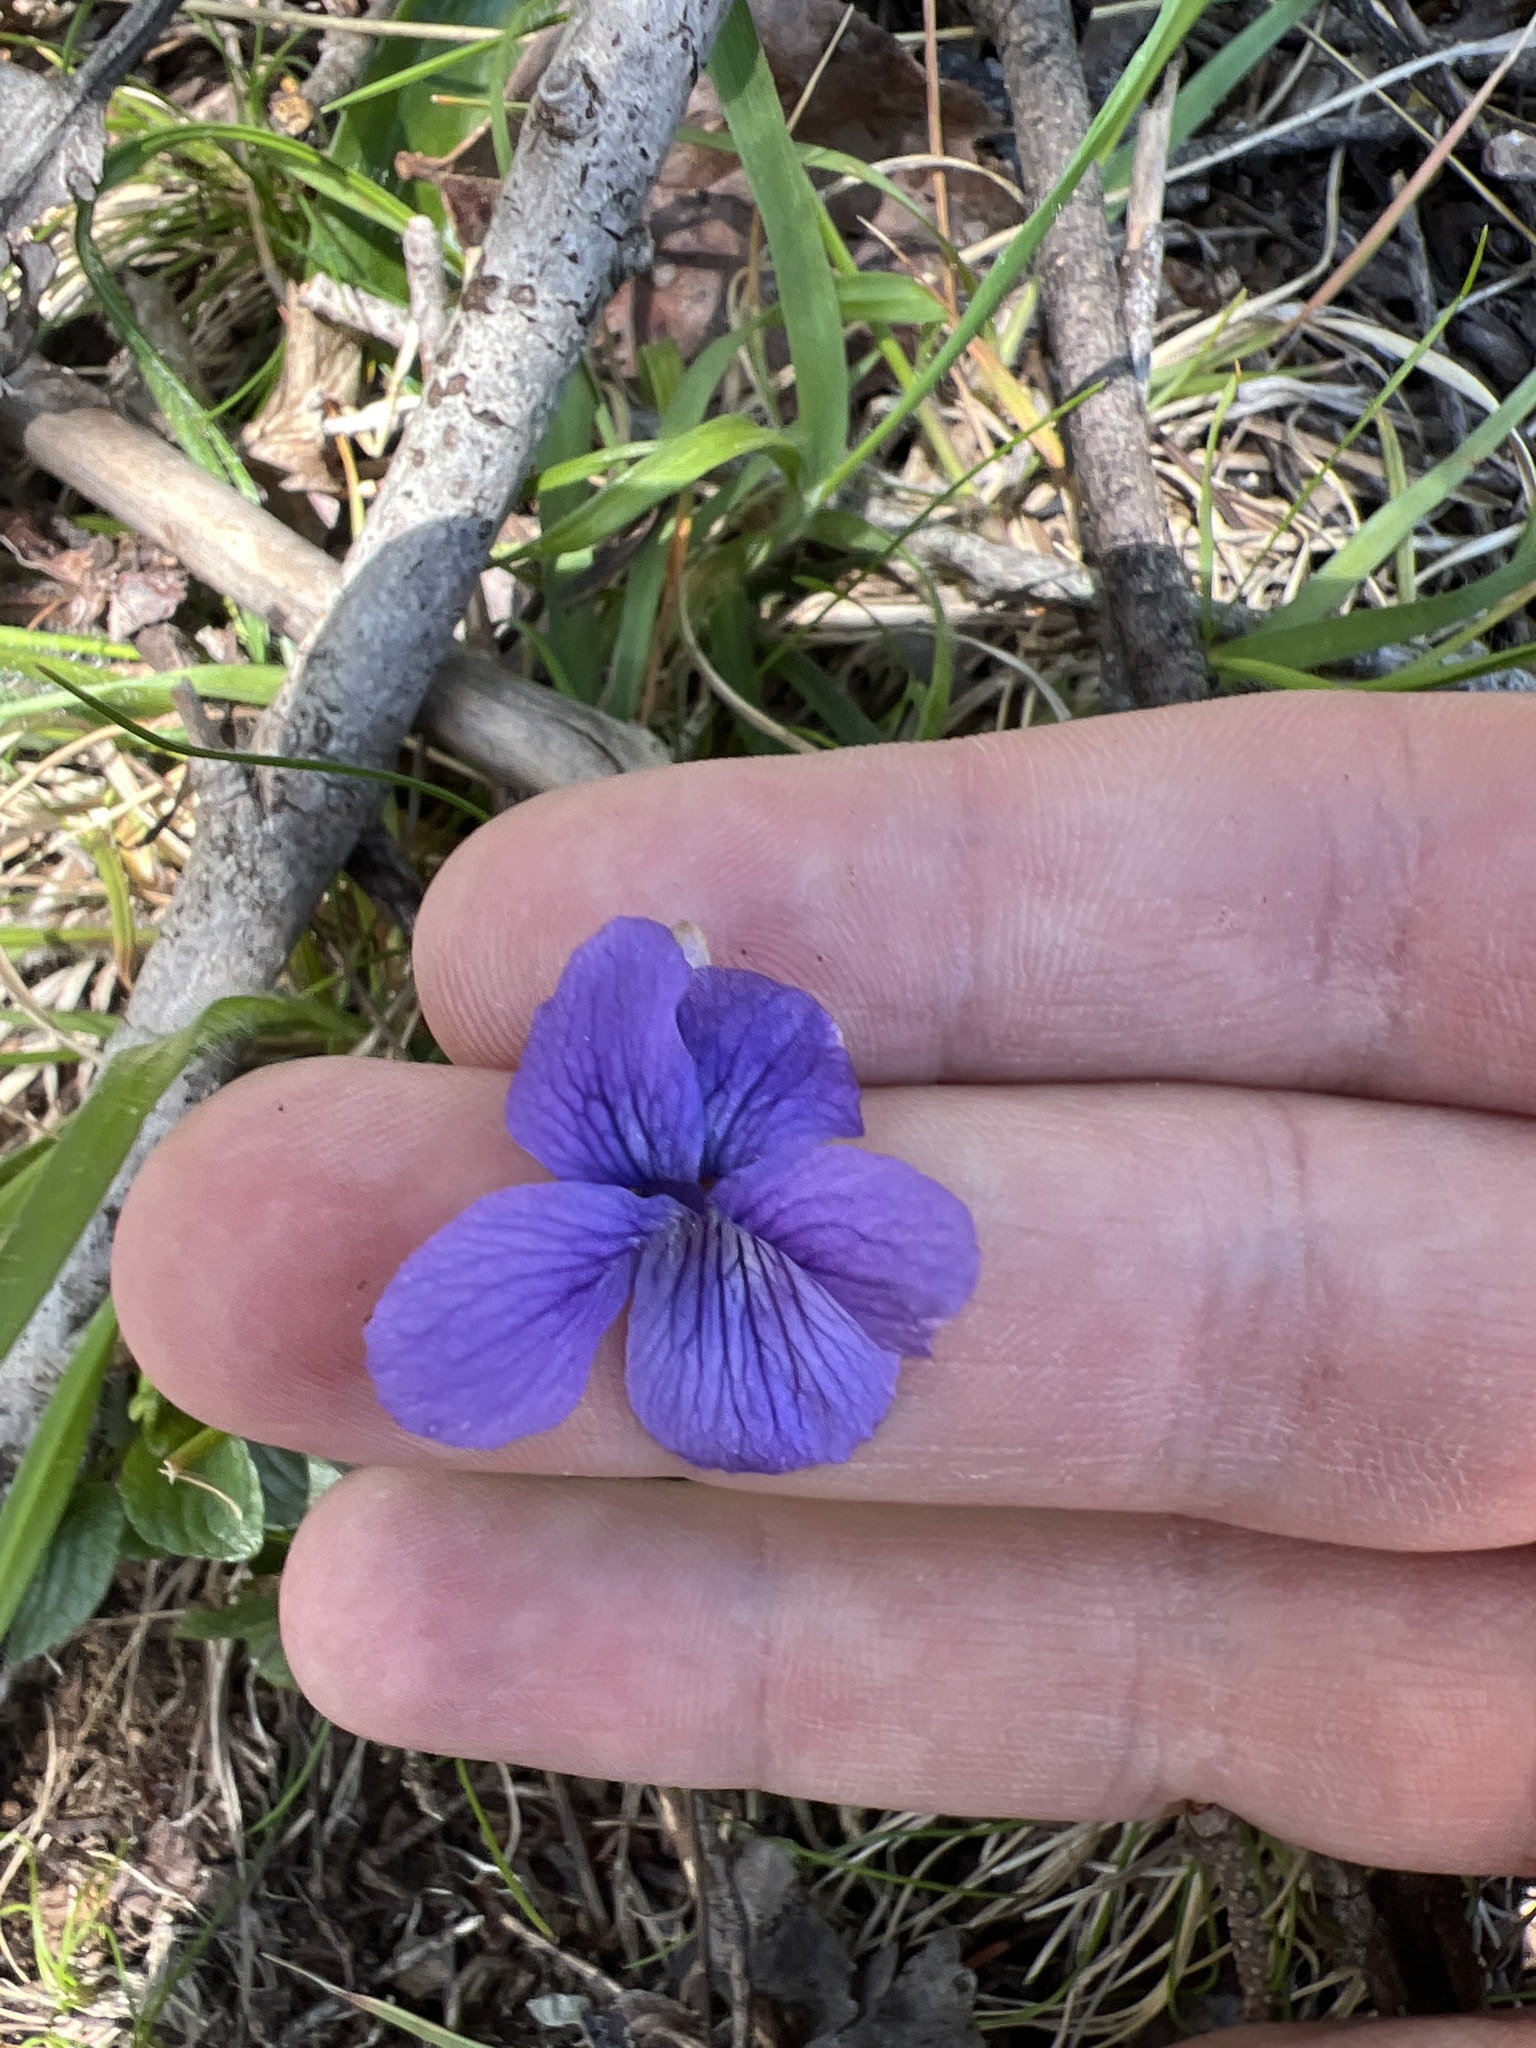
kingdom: Plantae
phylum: Tracheophyta
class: Magnoliopsida
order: Malpighiales
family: Violaceae
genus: Viola
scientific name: Viola adunca
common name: Sand violet
